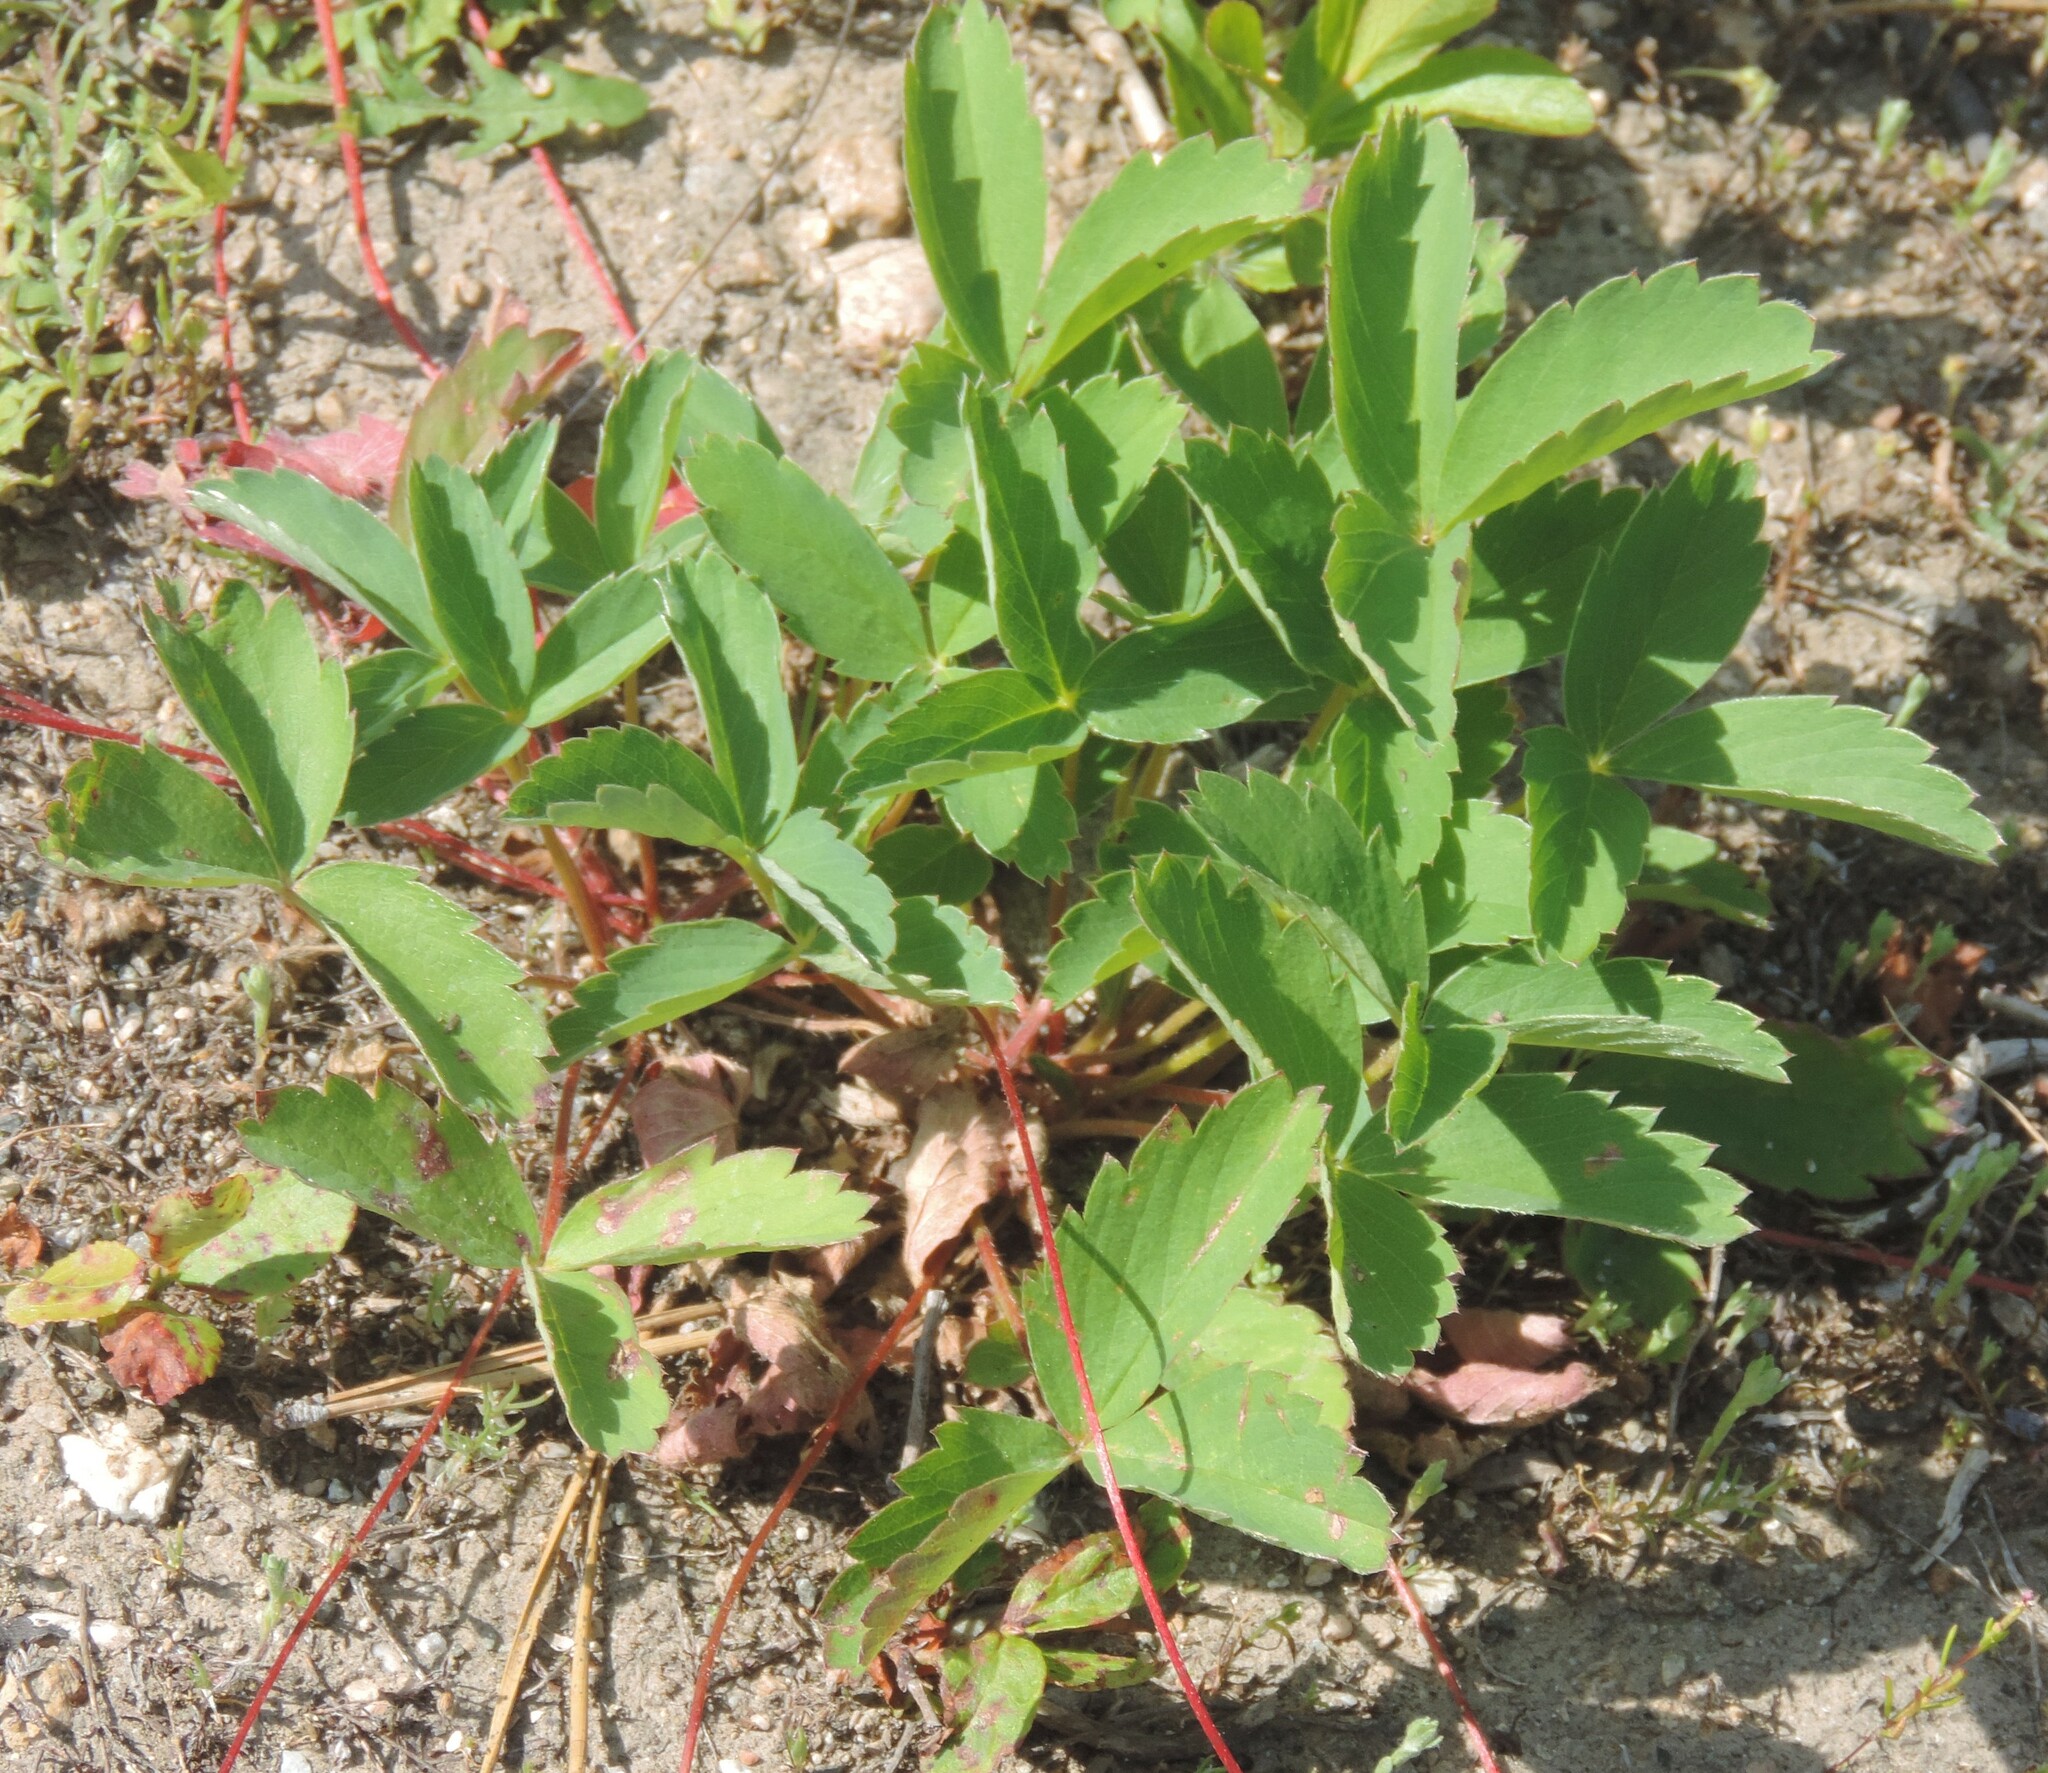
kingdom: Plantae
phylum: Tracheophyta
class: Magnoliopsida
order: Rosales
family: Rosaceae
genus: Fragaria
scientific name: Fragaria virginiana
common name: Thickleaved wild strawberry
